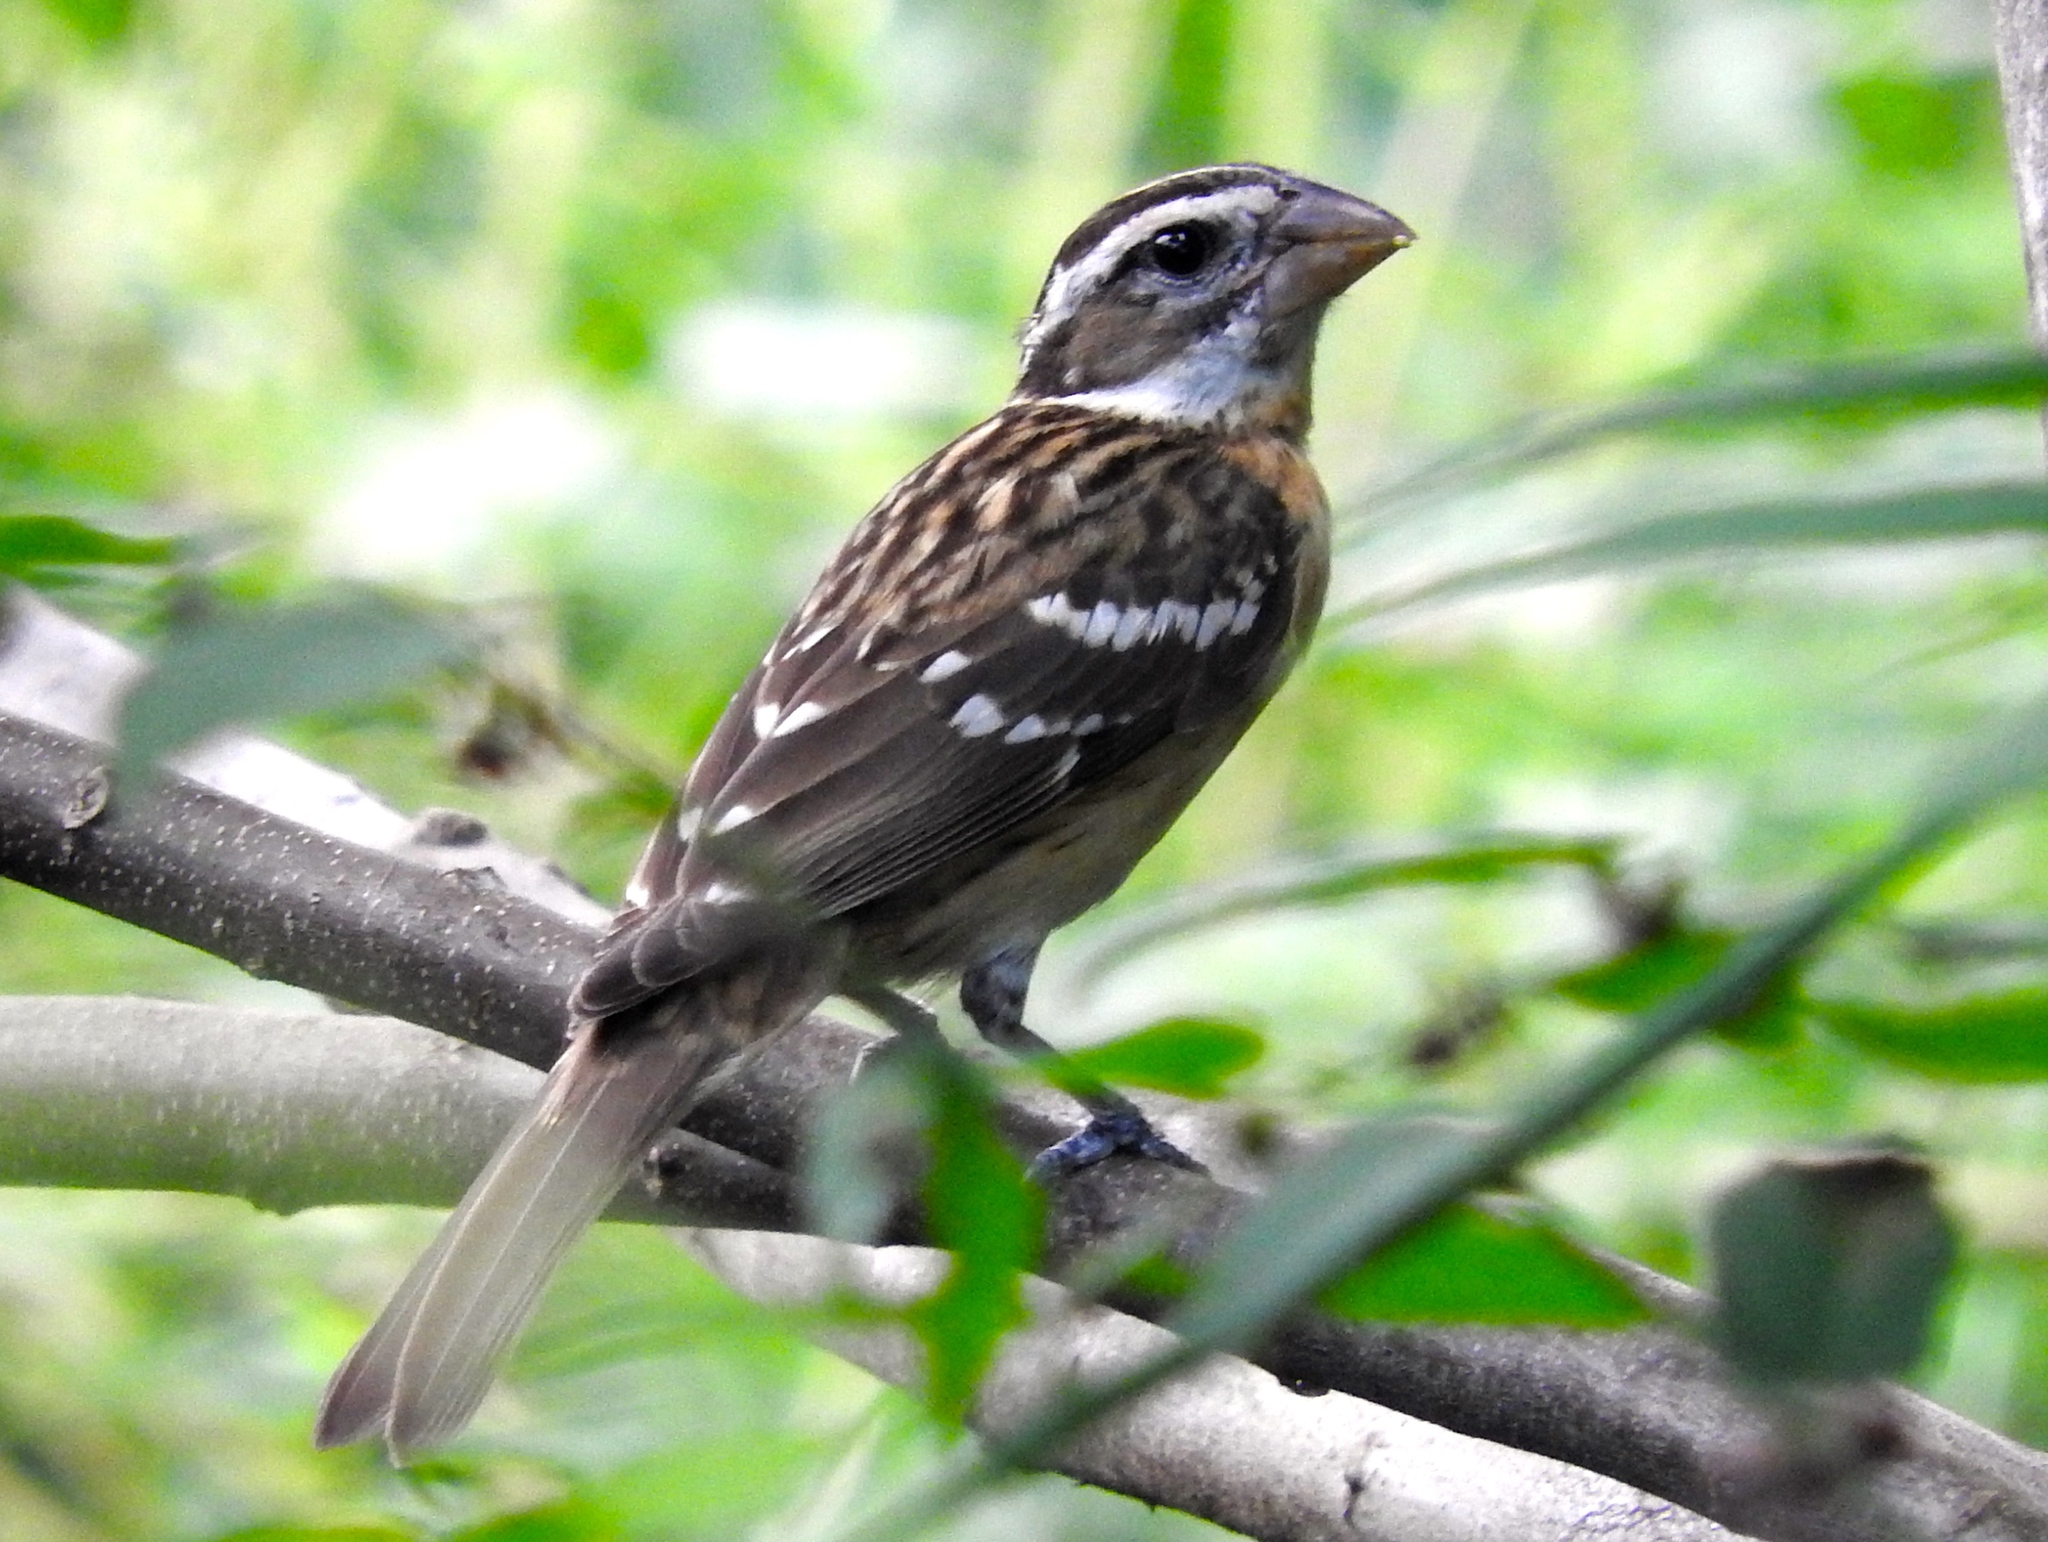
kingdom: Animalia
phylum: Chordata
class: Aves
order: Passeriformes
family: Cardinalidae
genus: Pheucticus
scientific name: Pheucticus melanocephalus
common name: Black-headed grosbeak
